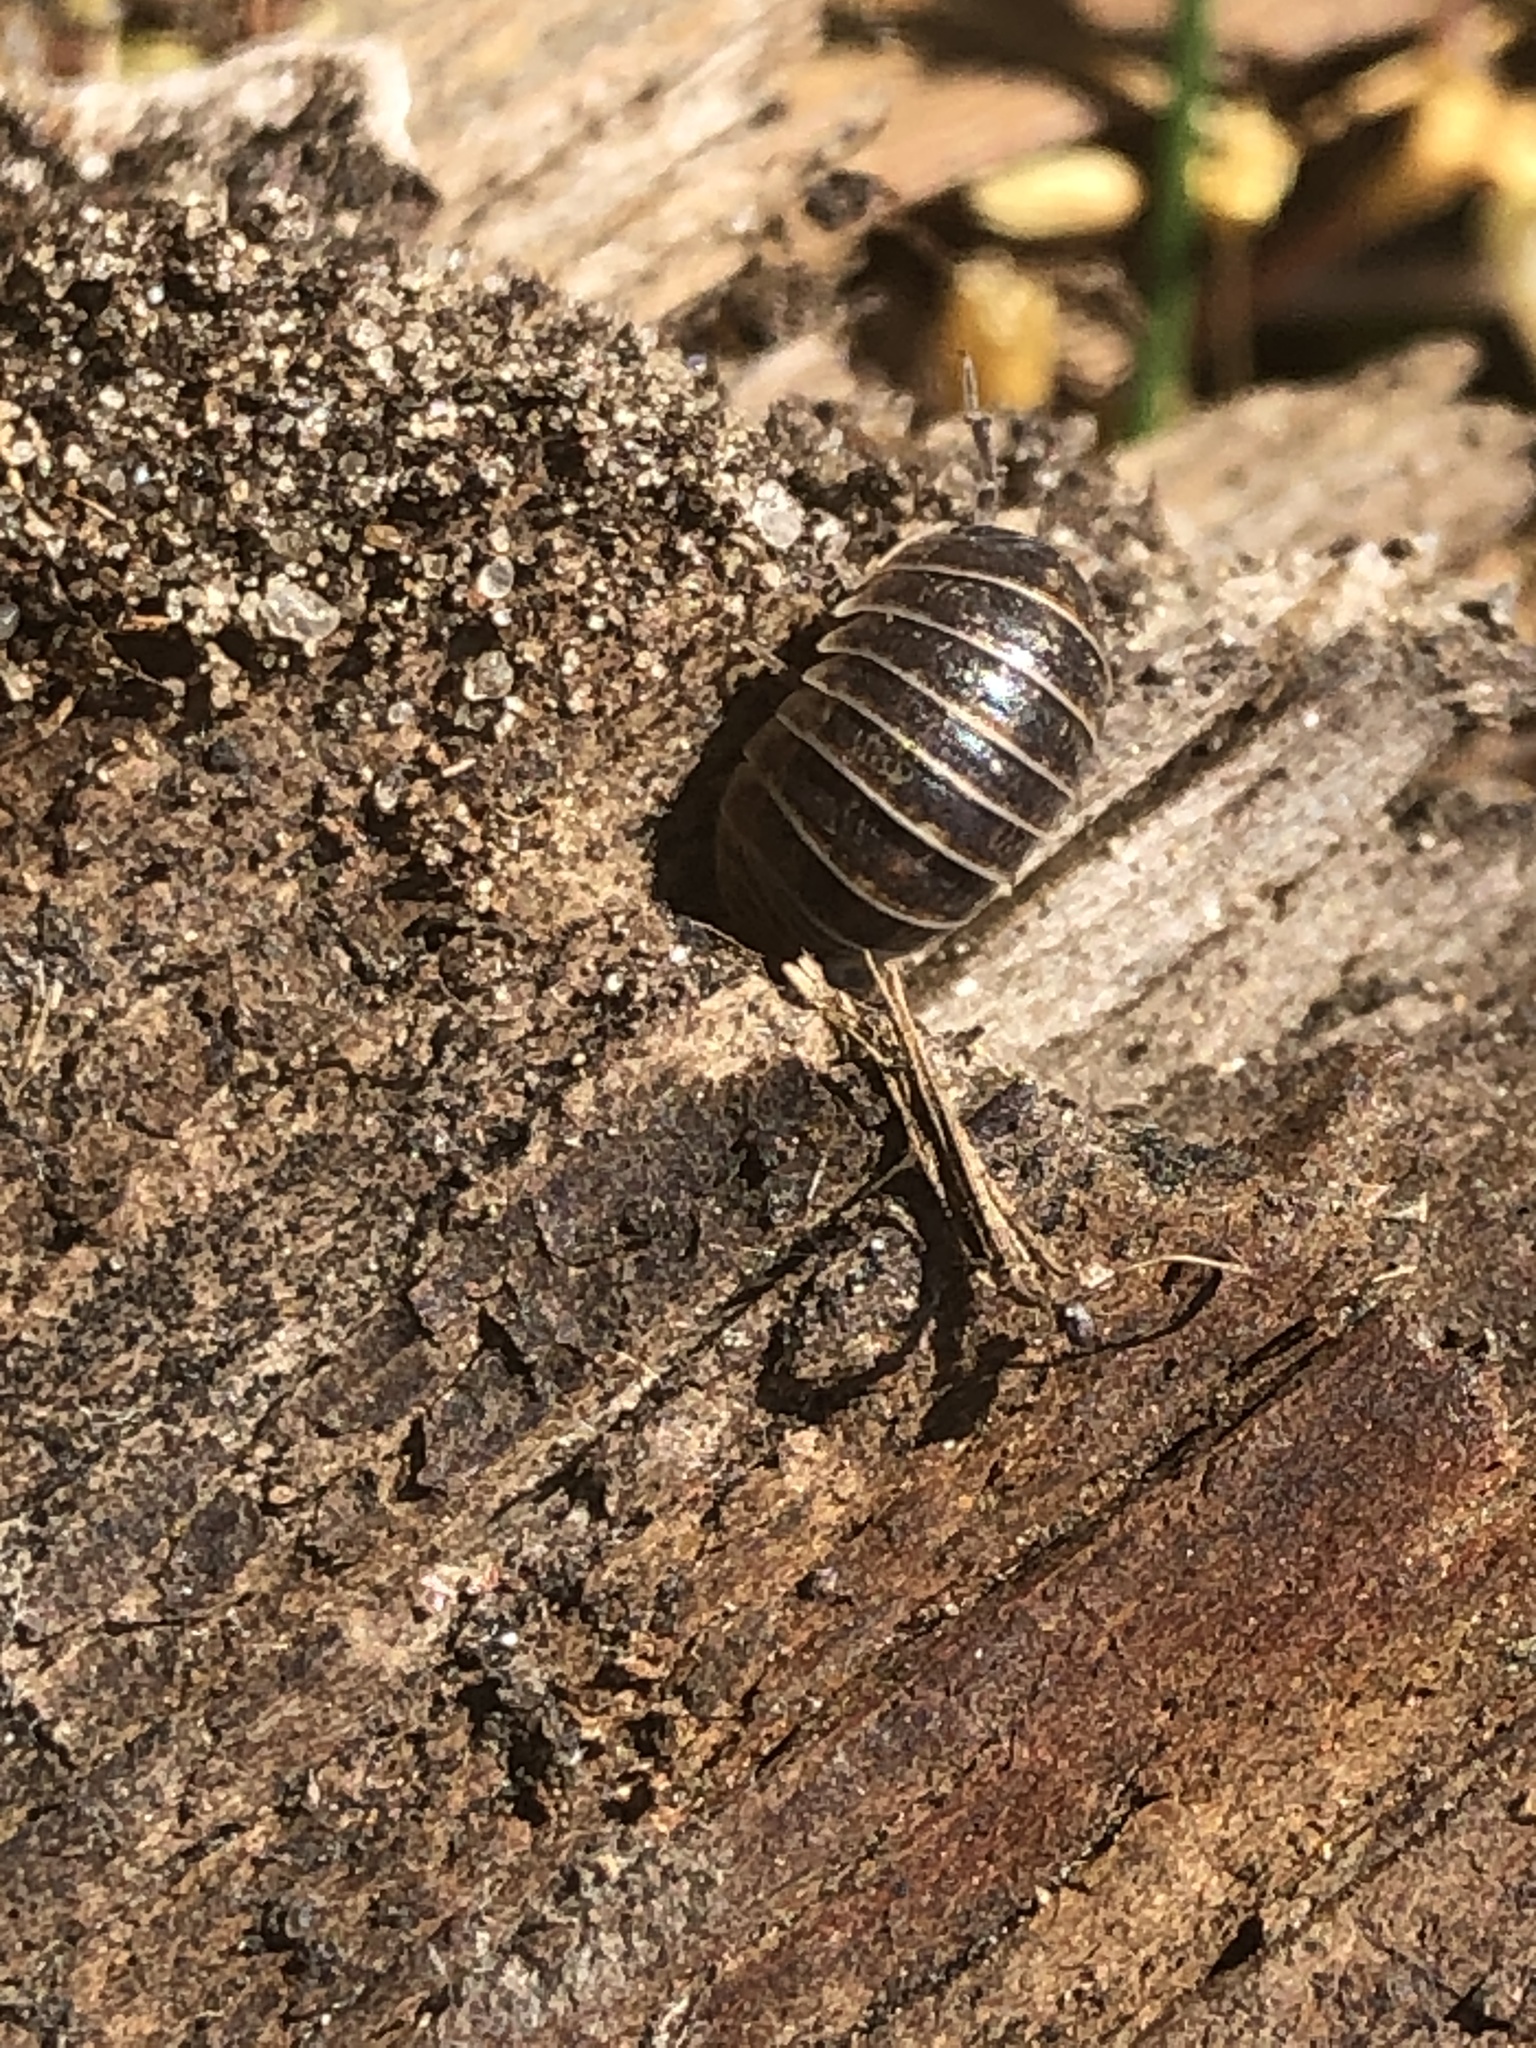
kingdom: Animalia
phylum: Arthropoda
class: Malacostraca
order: Isopoda
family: Armadillidiidae
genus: Armadillidium
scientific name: Armadillidium vulgare
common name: Common pill woodlouse
